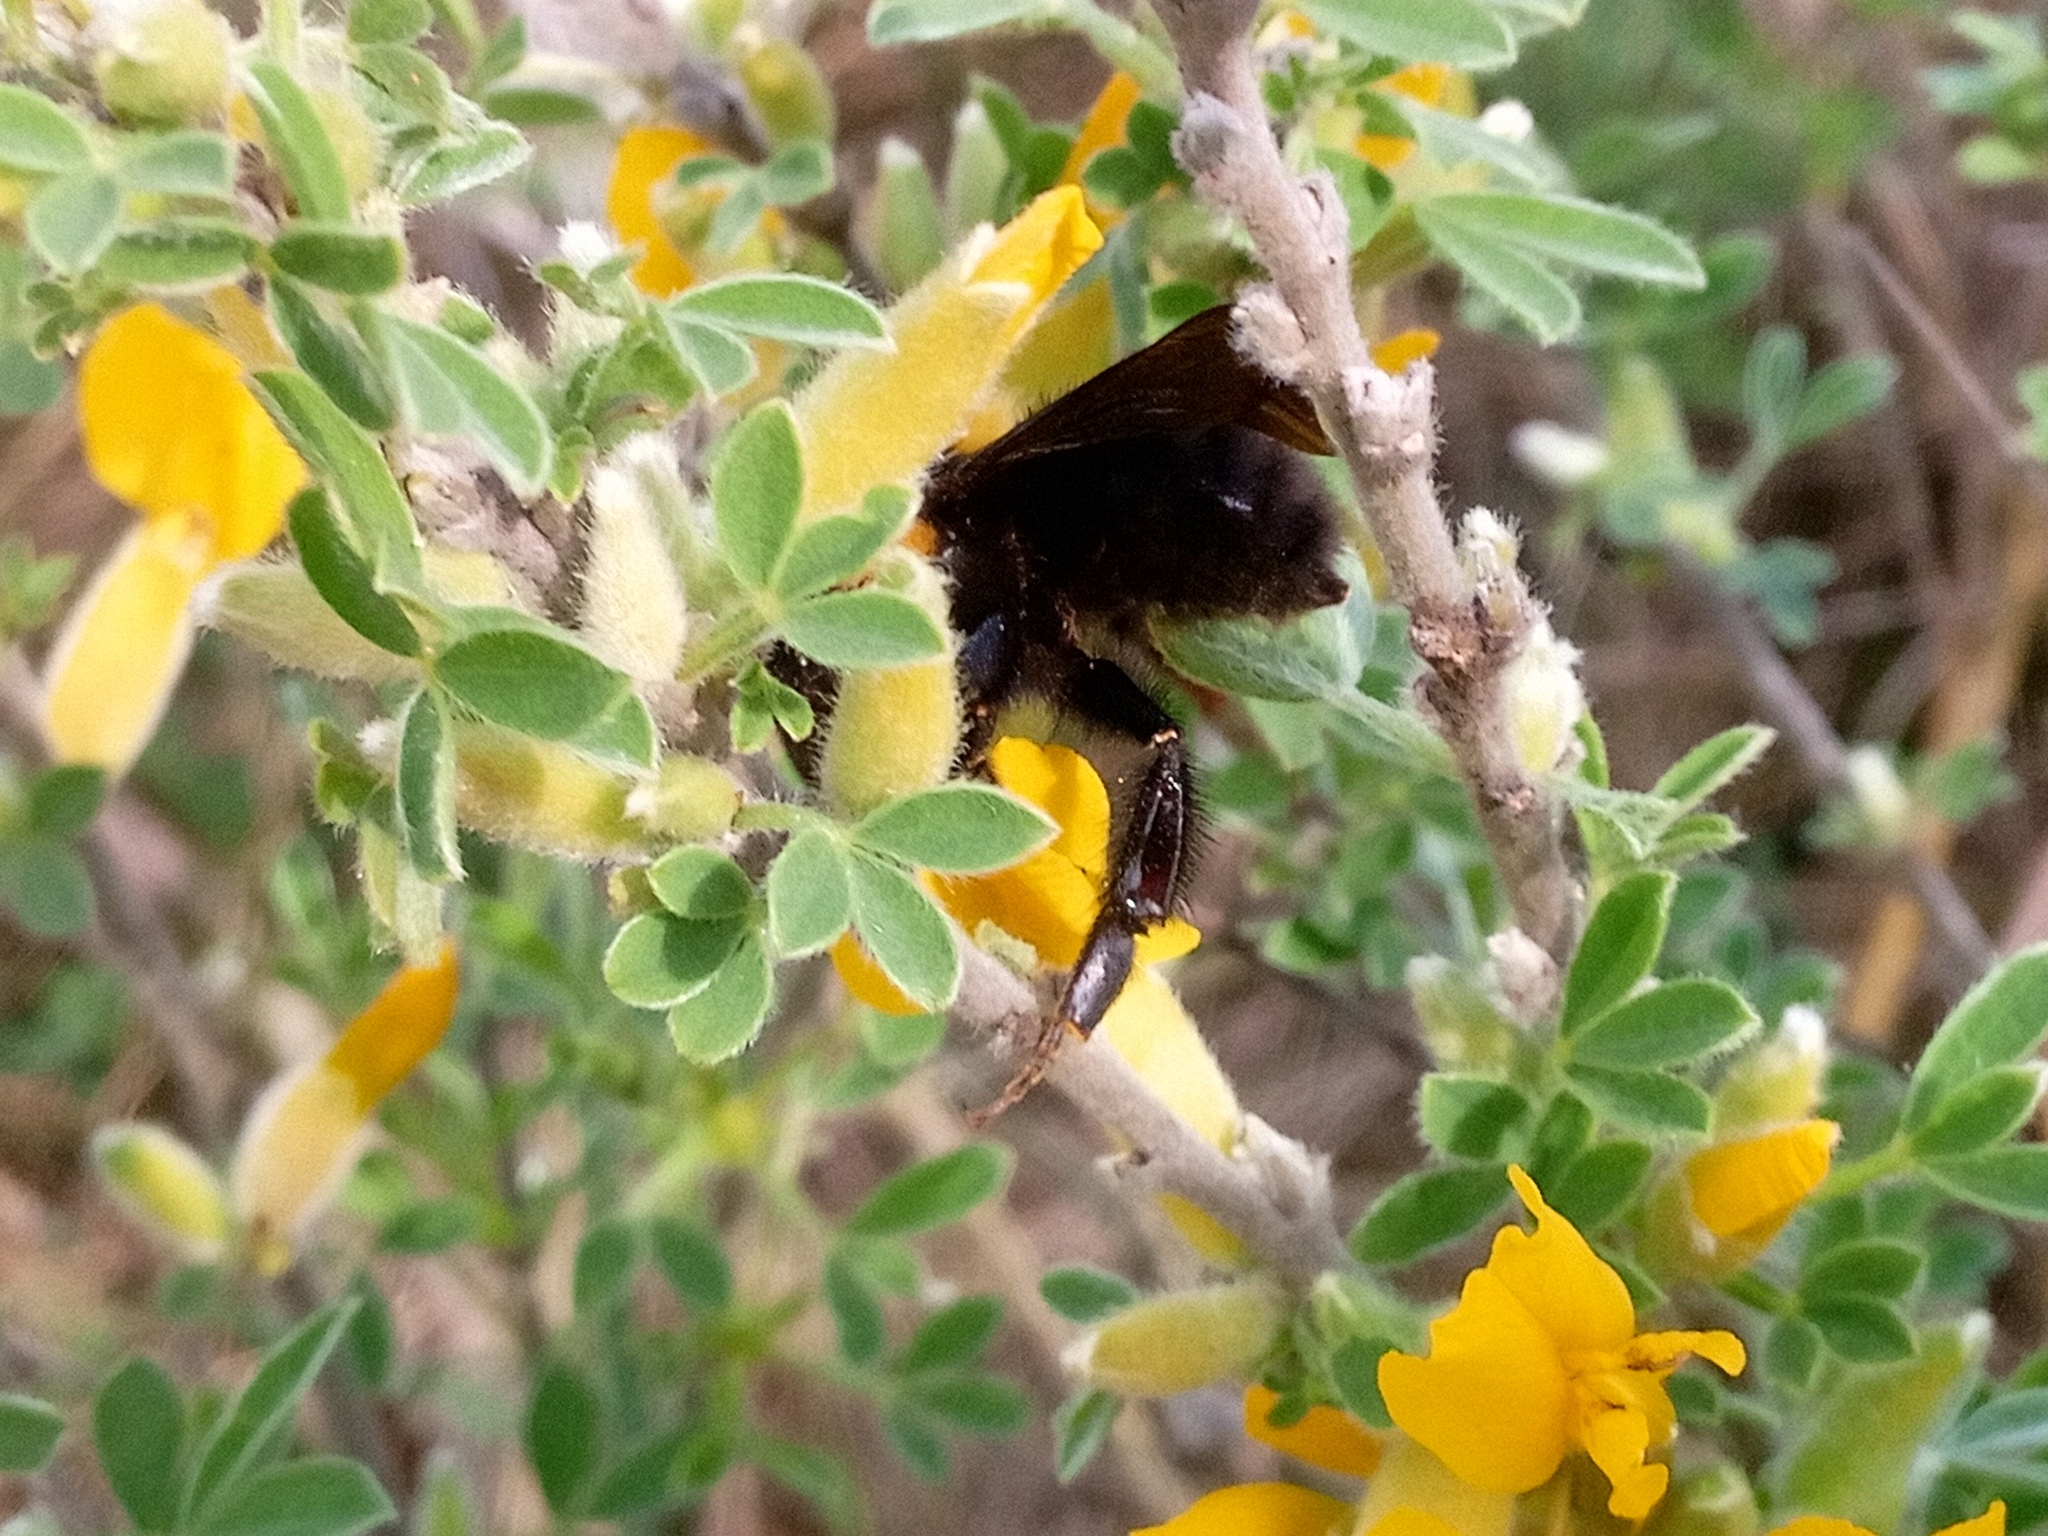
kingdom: Animalia
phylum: Arthropoda
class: Insecta
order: Hymenoptera
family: Apidae
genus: Bombus
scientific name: Bombus argillaceus
